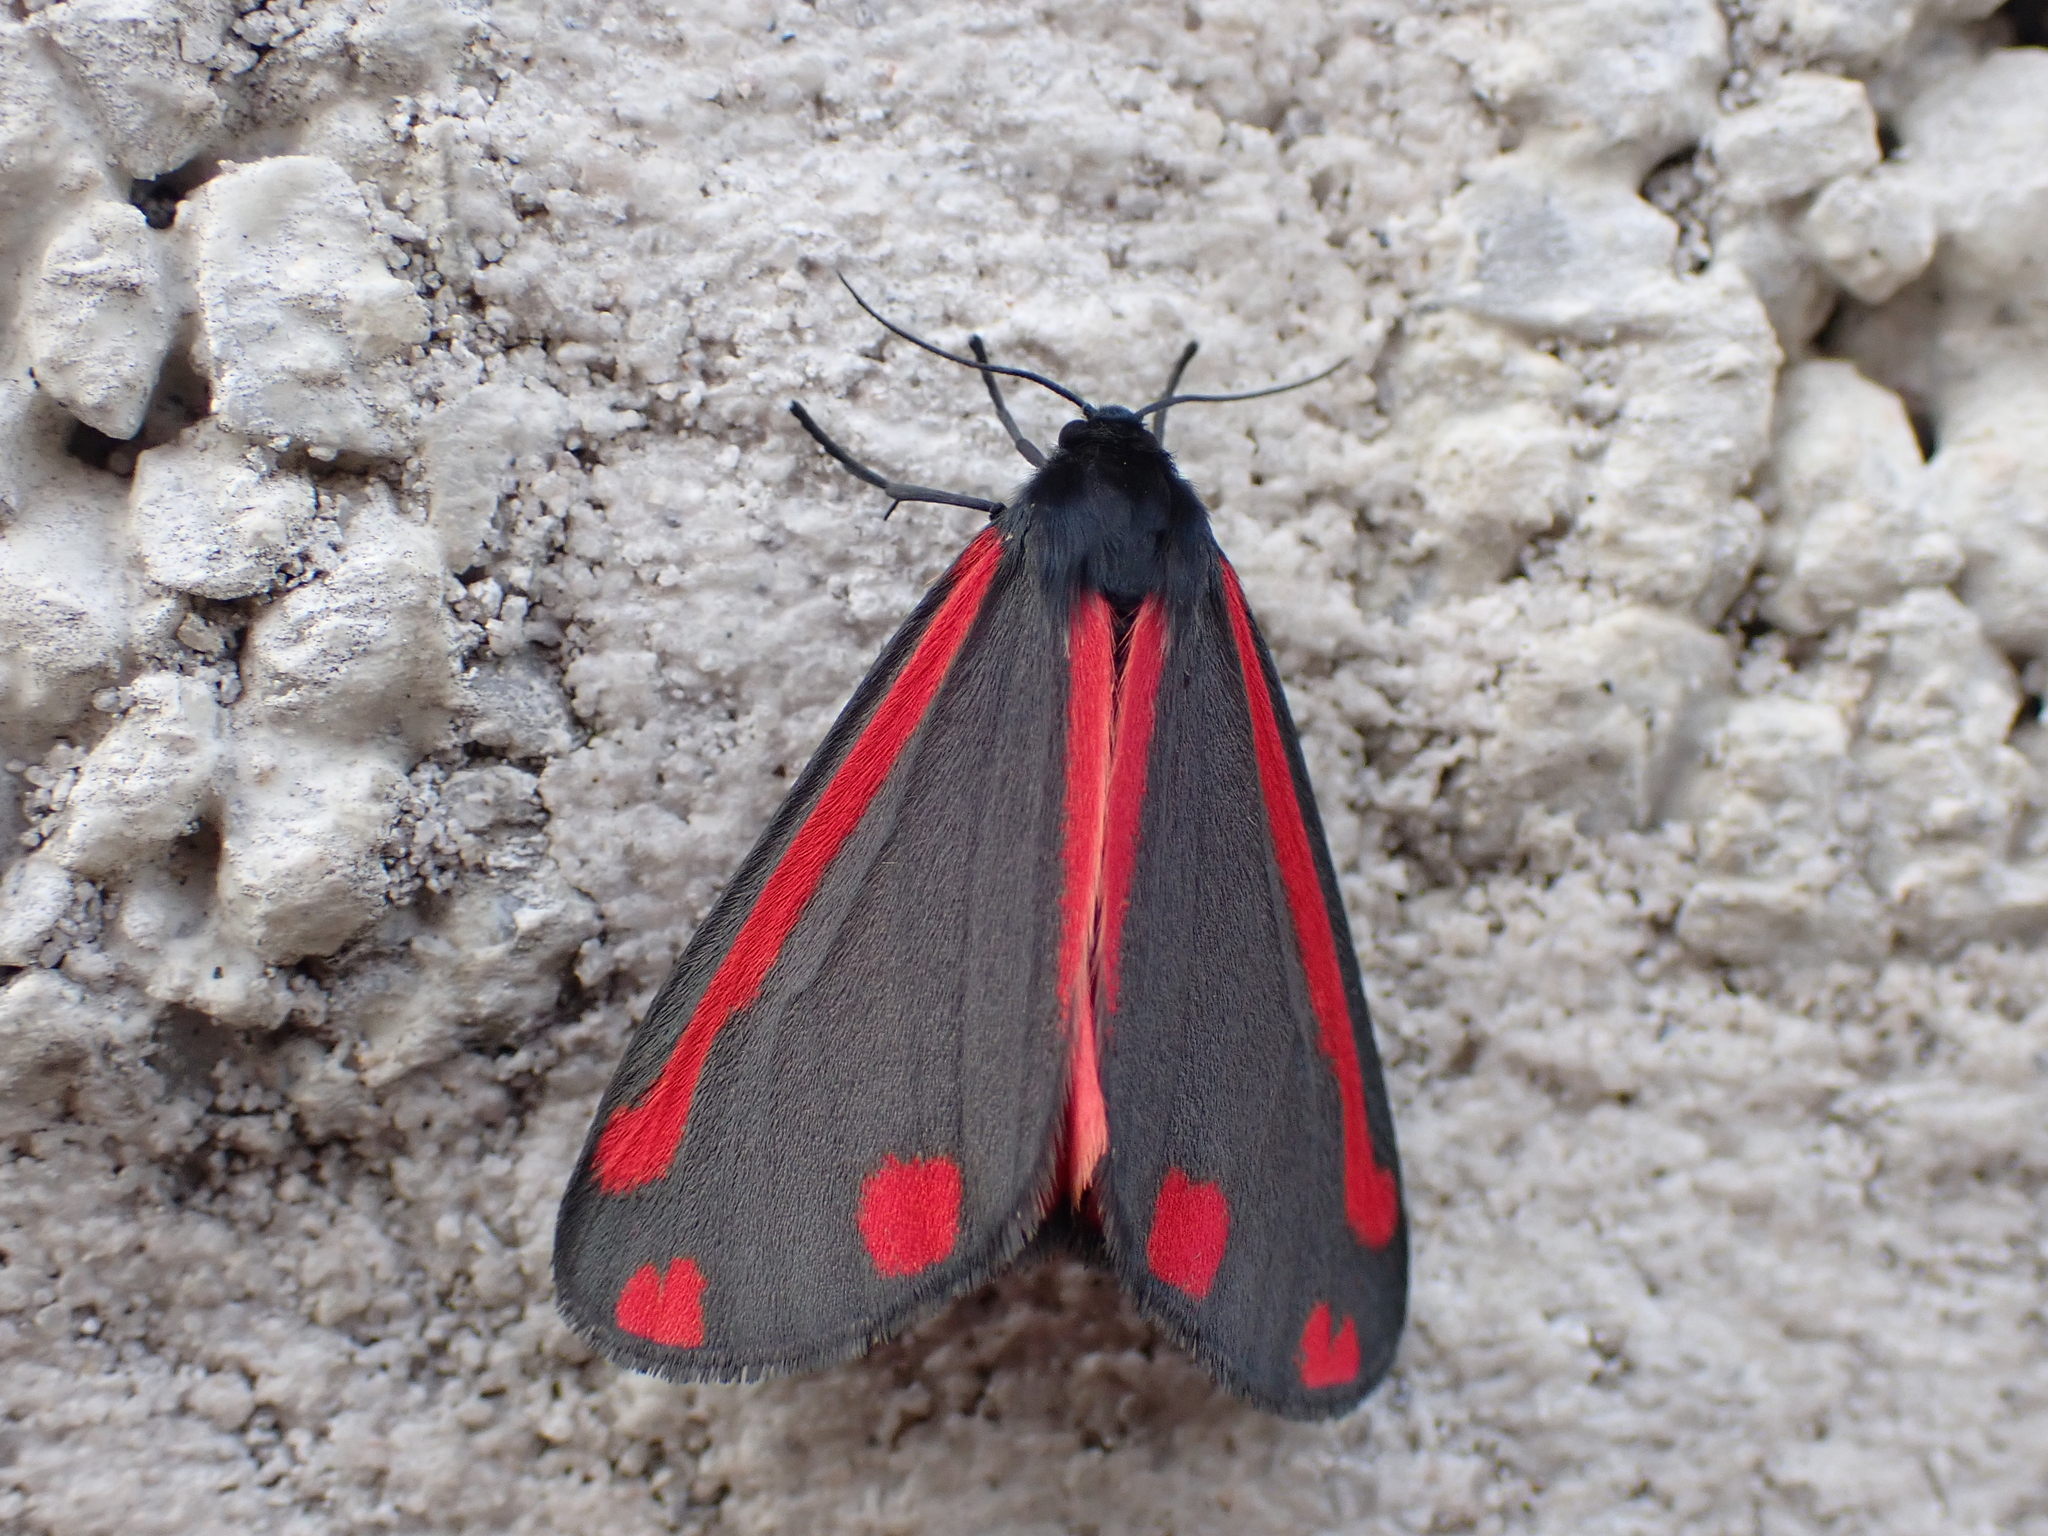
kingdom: Animalia
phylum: Arthropoda
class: Insecta
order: Lepidoptera
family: Erebidae
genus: Tyria
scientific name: Tyria jacobaeae
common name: Cinnabar
